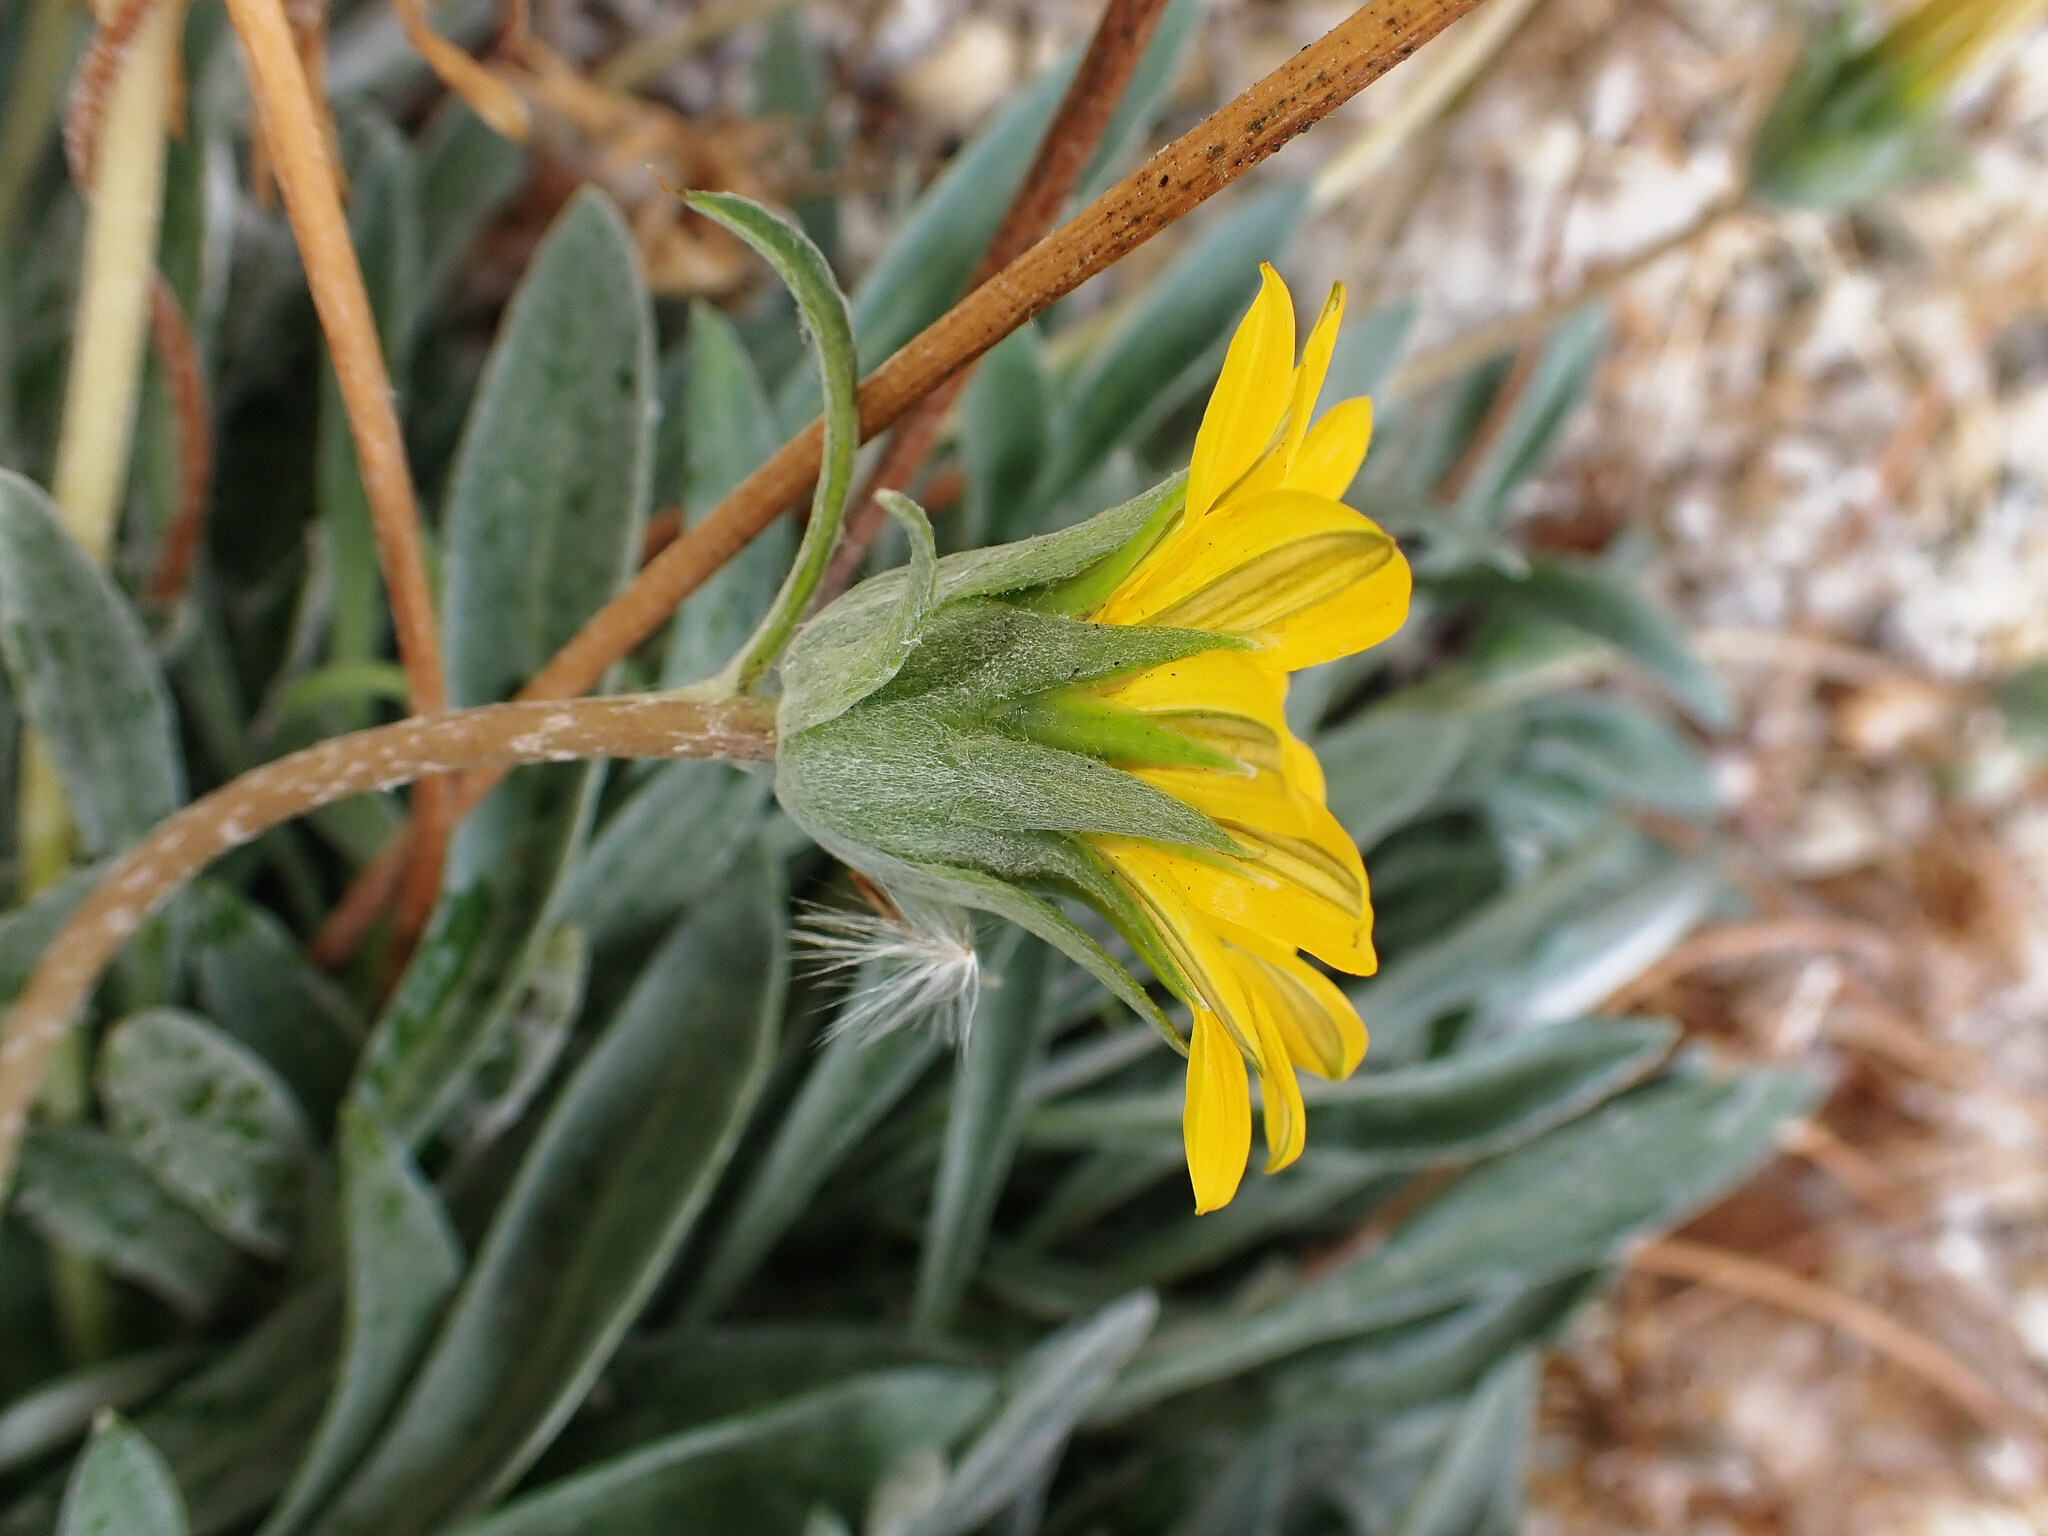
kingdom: Plantae
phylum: Tracheophyta
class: Magnoliopsida
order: Asterales
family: Asteraceae
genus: Gazania
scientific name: Gazania rigens
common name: Treasureflower
